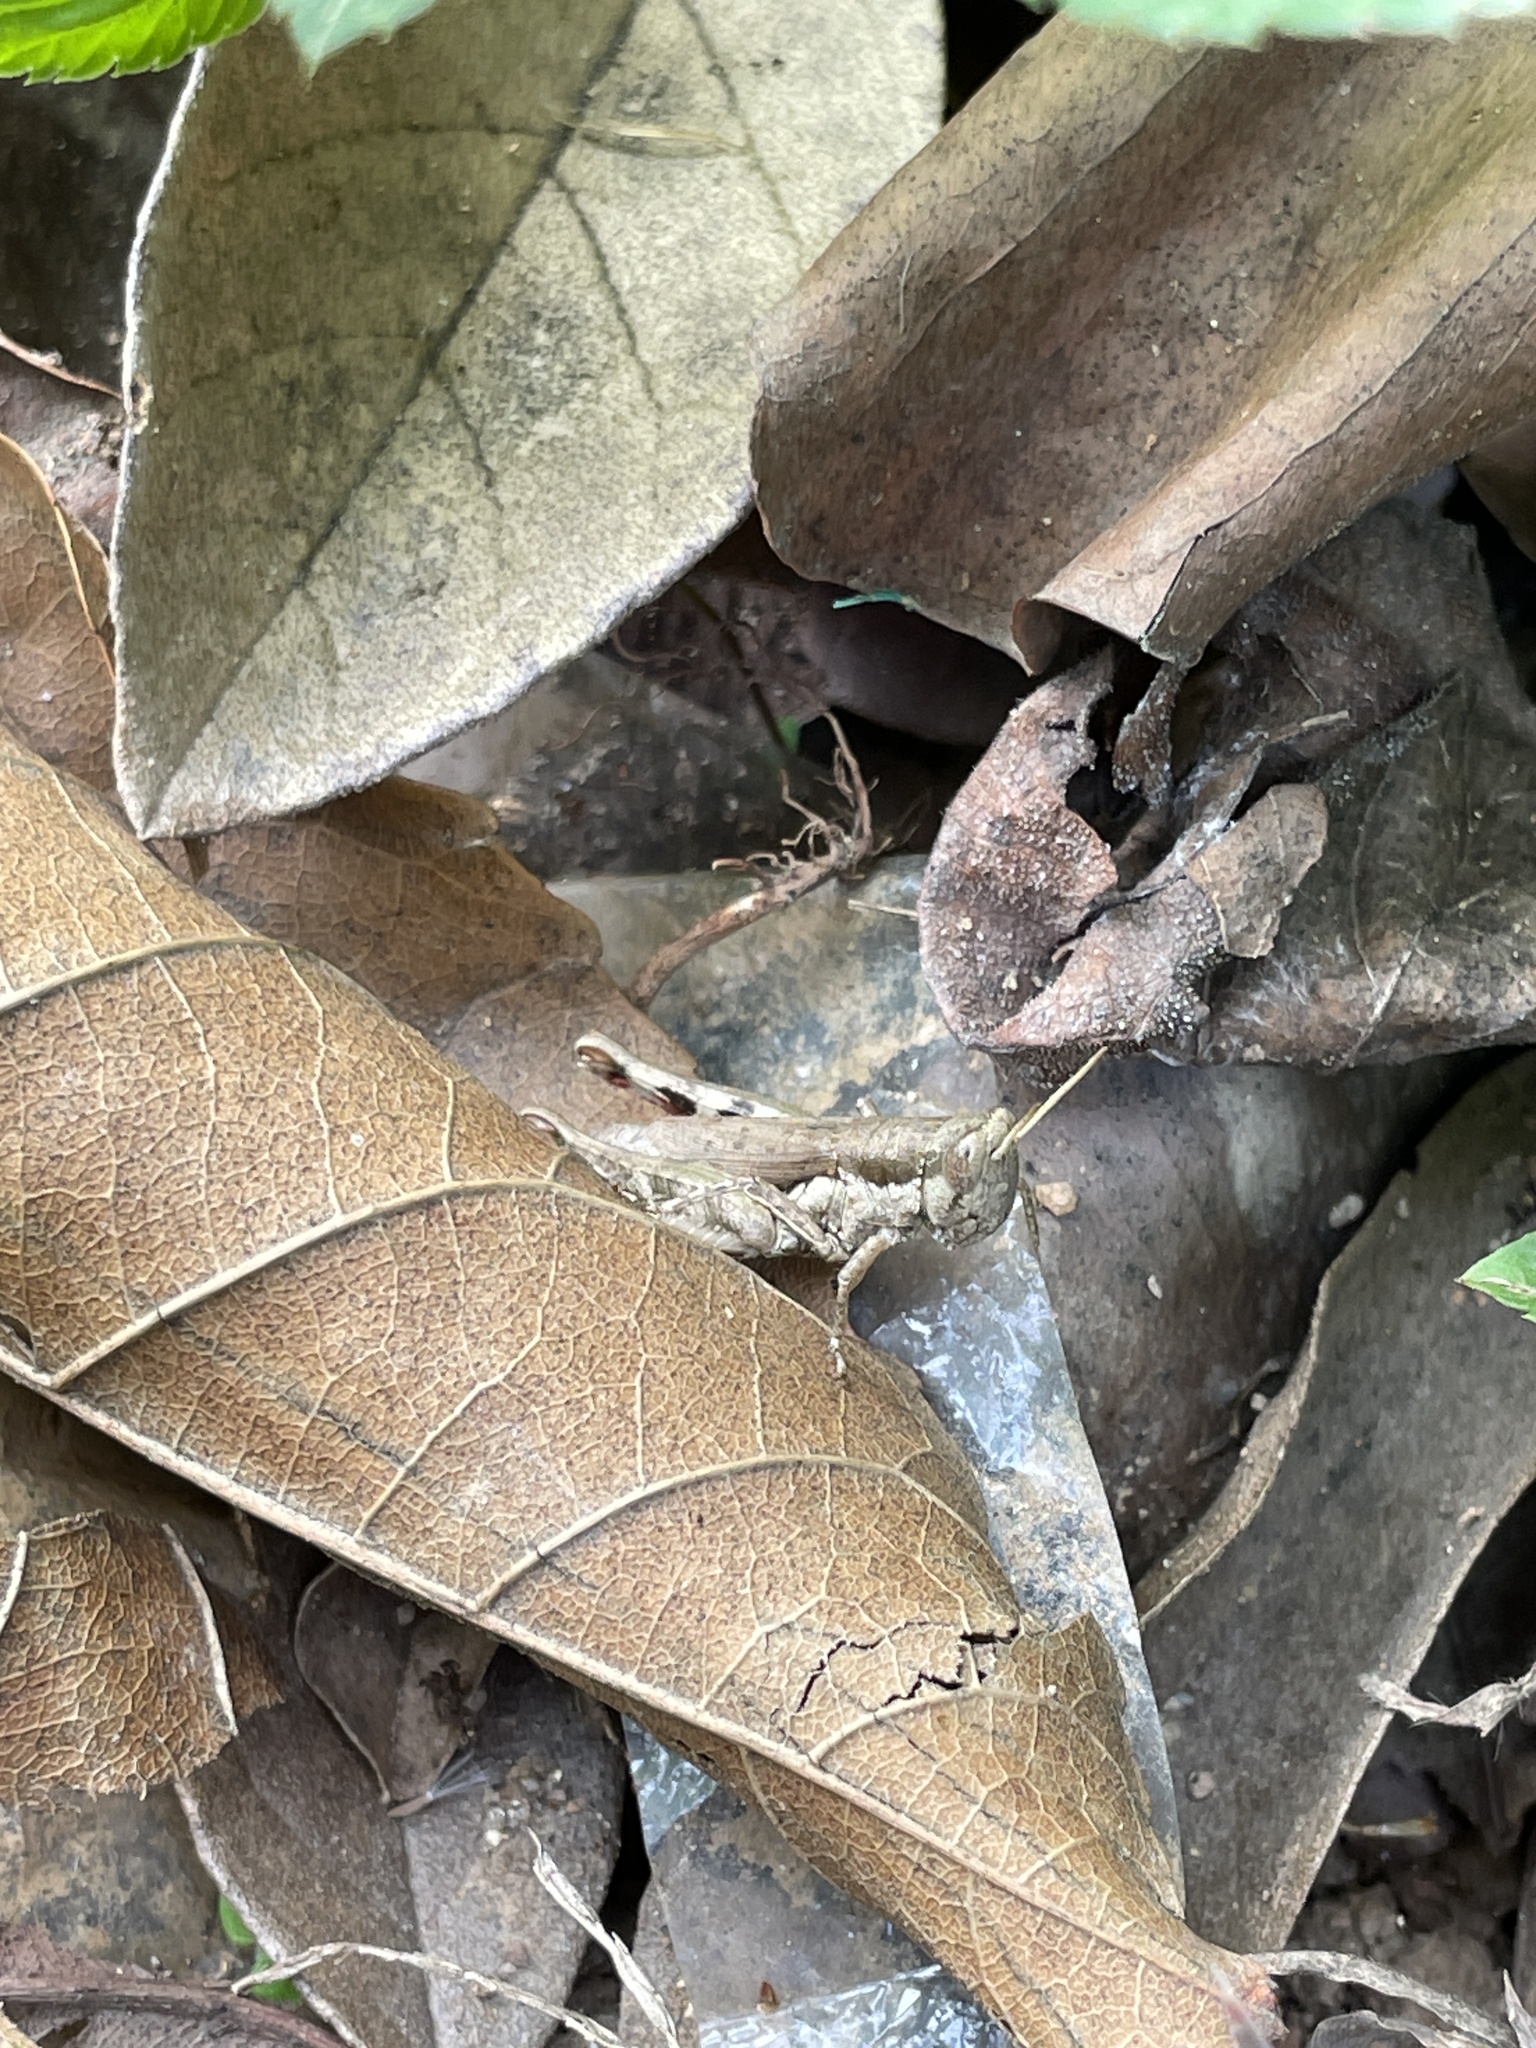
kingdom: Animalia
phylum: Arthropoda
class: Insecta
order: Orthoptera
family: Acrididae
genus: Pseudoxya
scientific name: Pseudoxya diminuta
